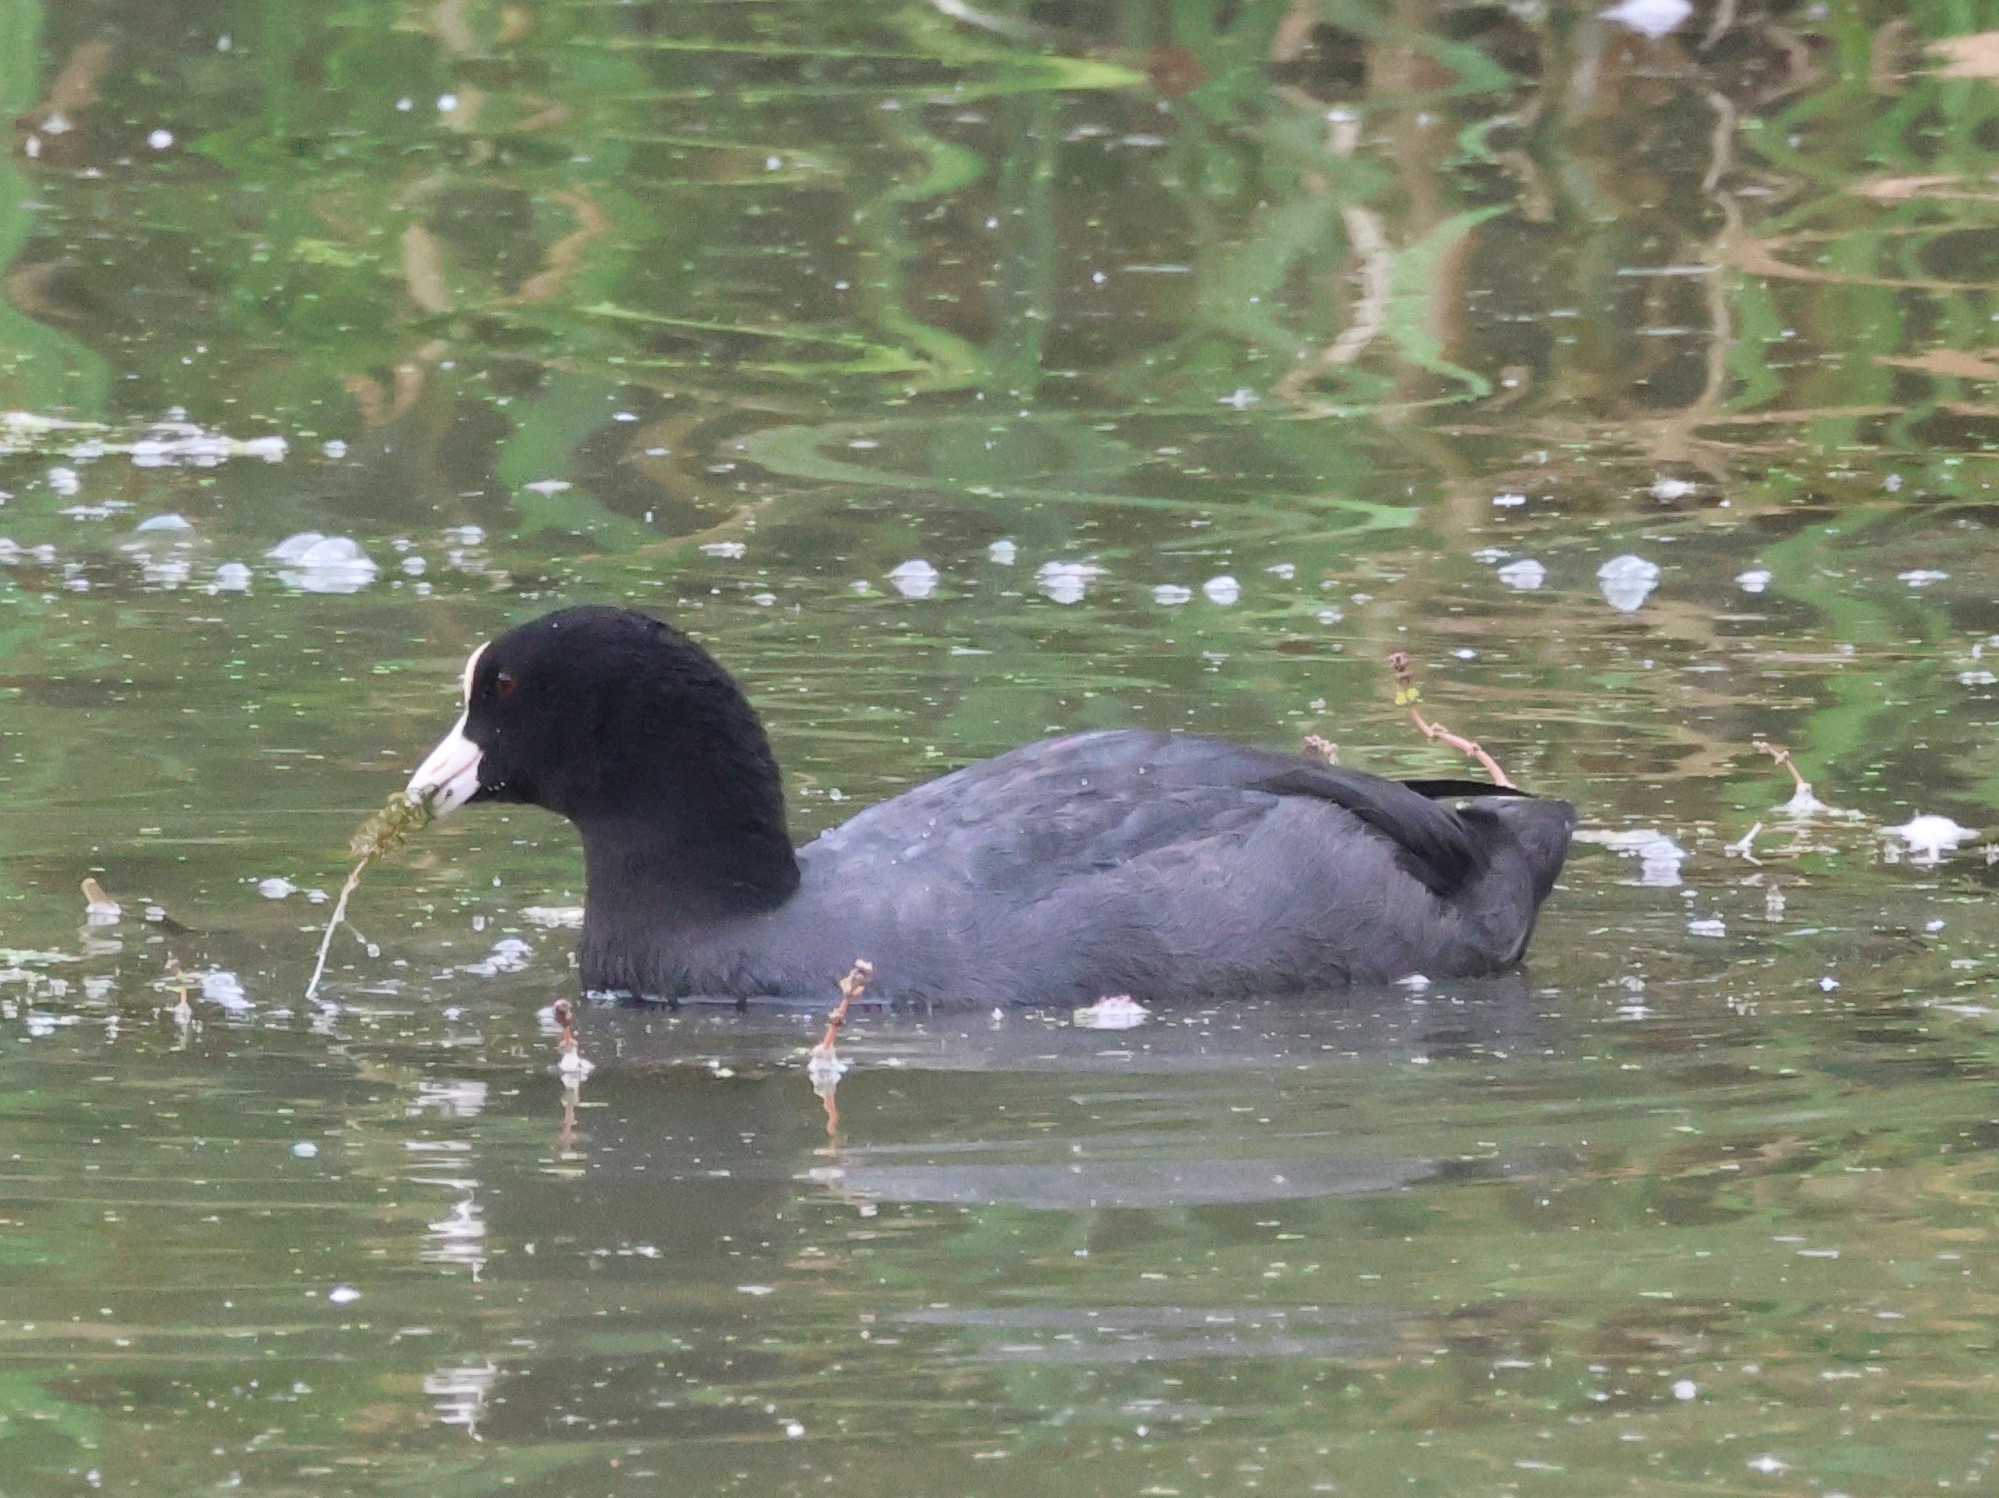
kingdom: Animalia
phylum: Chordata
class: Aves
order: Gruiformes
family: Rallidae
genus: Fulica
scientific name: Fulica atra
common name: Eurasian coot
